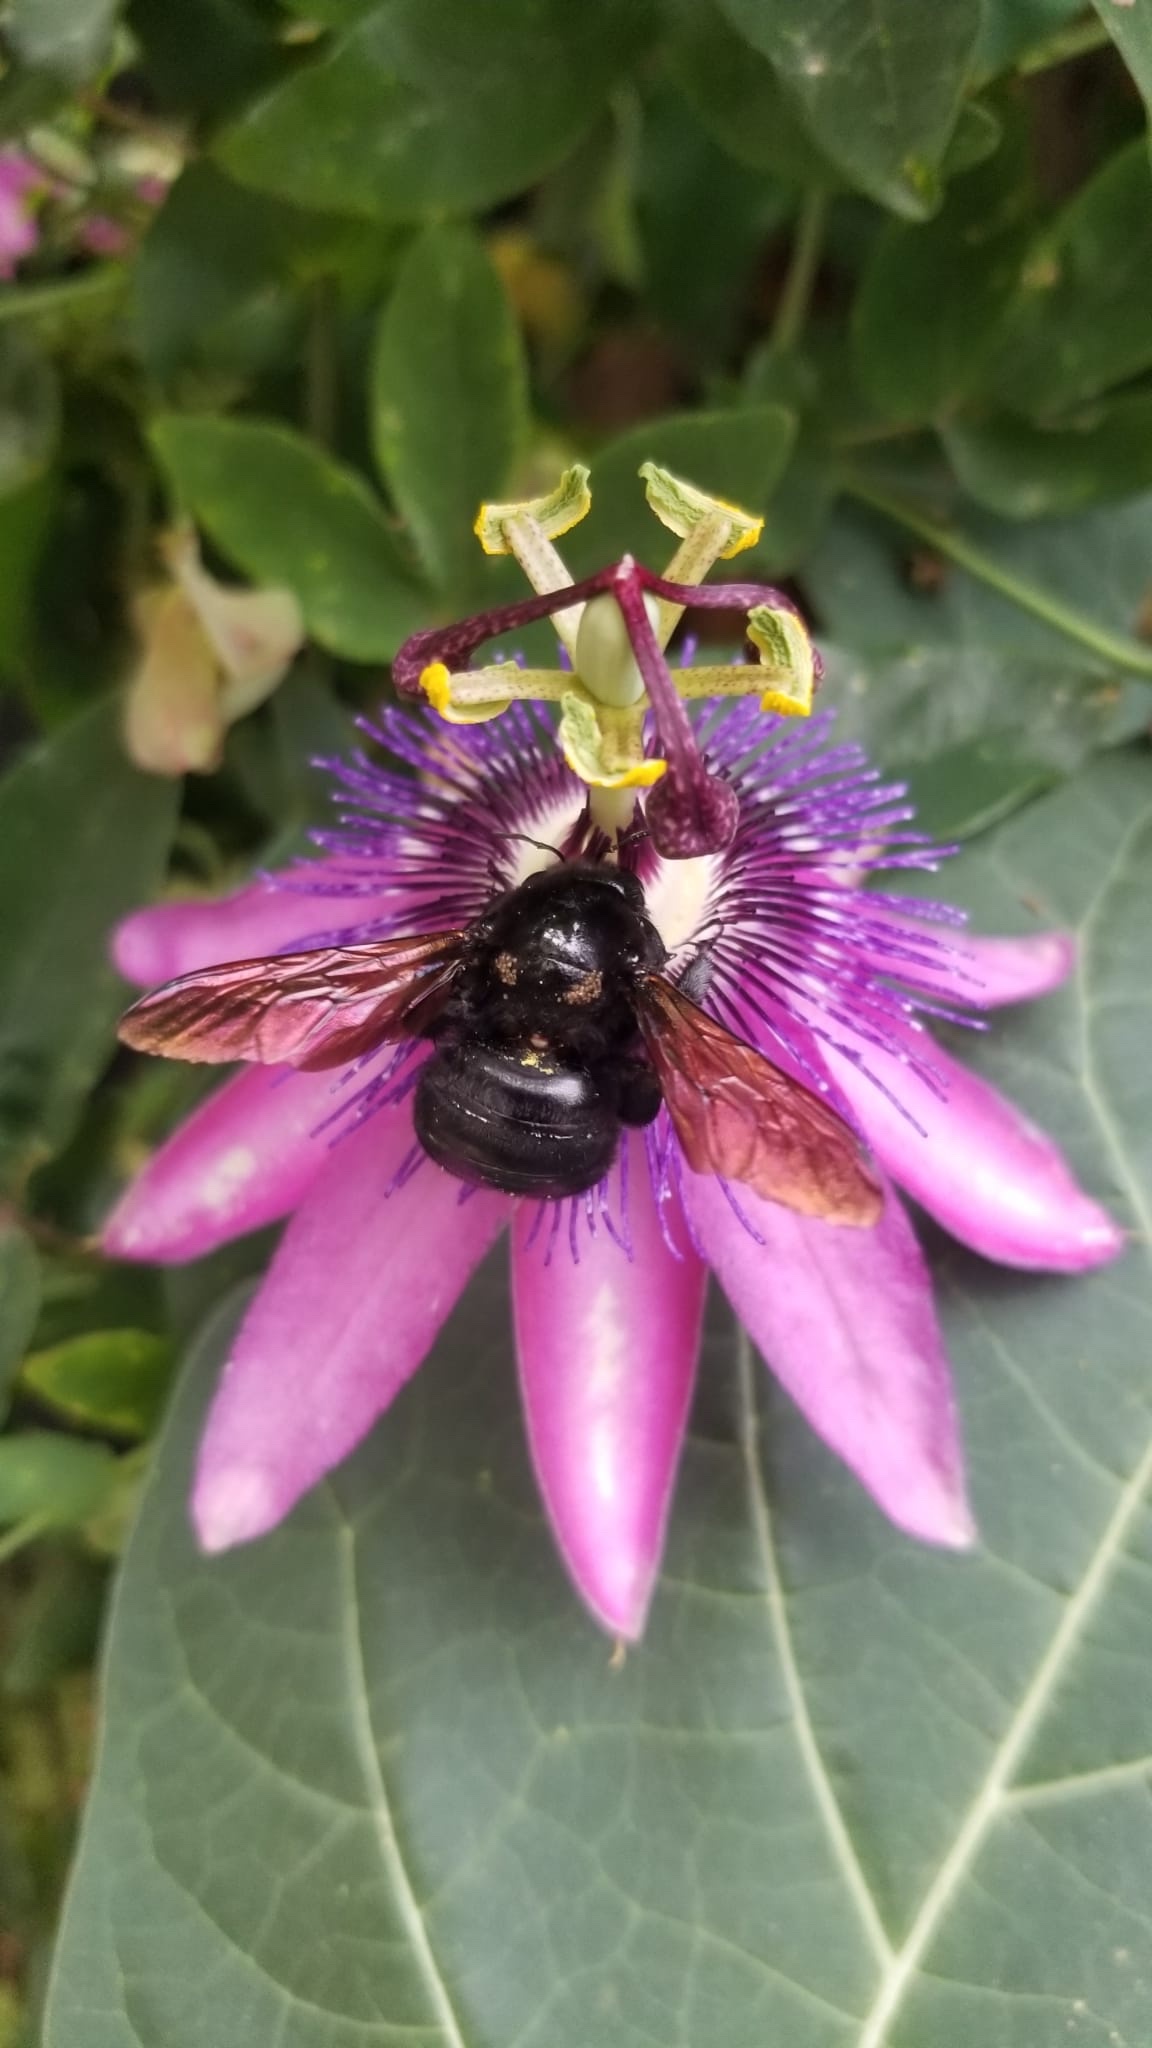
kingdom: Animalia
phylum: Arthropoda
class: Insecta
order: Hymenoptera
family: Apidae
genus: Xylocopa
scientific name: Xylocopa sonorina
